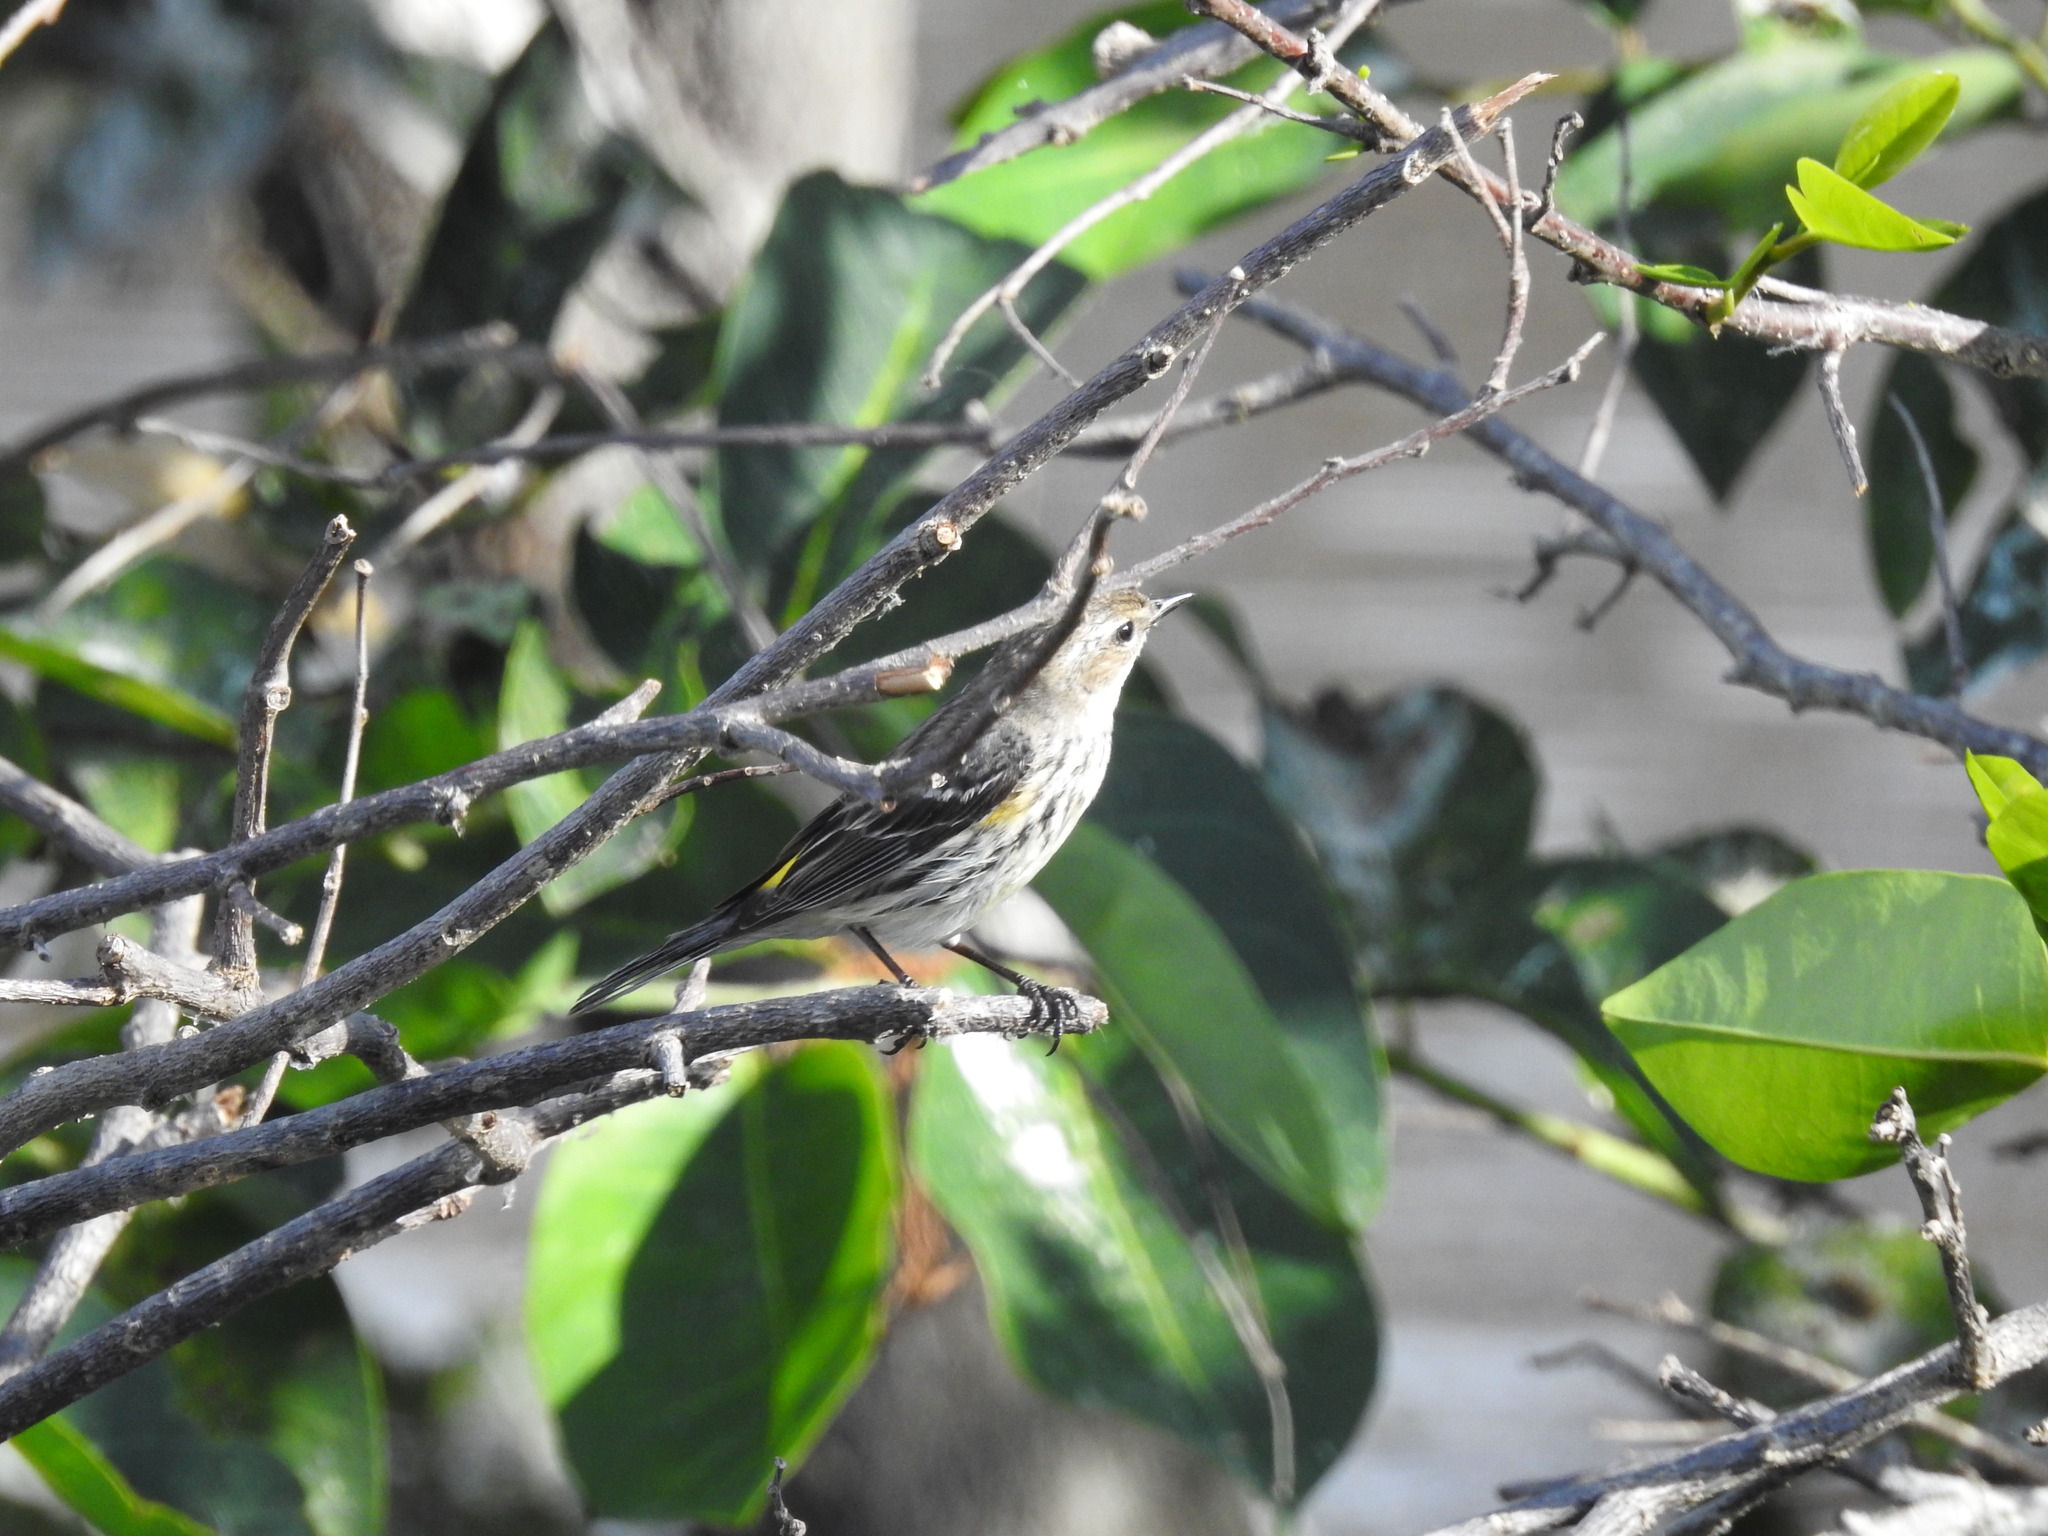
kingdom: Animalia
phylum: Chordata
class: Aves
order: Passeriformes
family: Parulidae
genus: Setophaga
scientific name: Setophaga coronata
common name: Myrtle warbler
